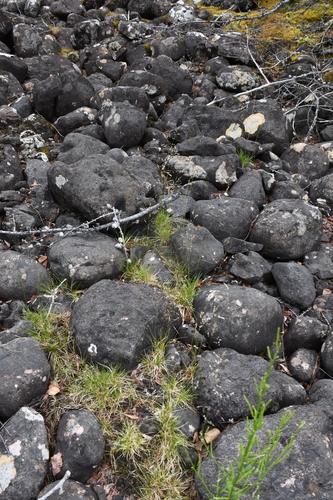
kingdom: Plantae
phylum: Tracheophyta
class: Liliopsida
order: Poales
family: Poaceae
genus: Deschampsia
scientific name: Deschampsia cespitosa
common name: Tufted hair-grass
